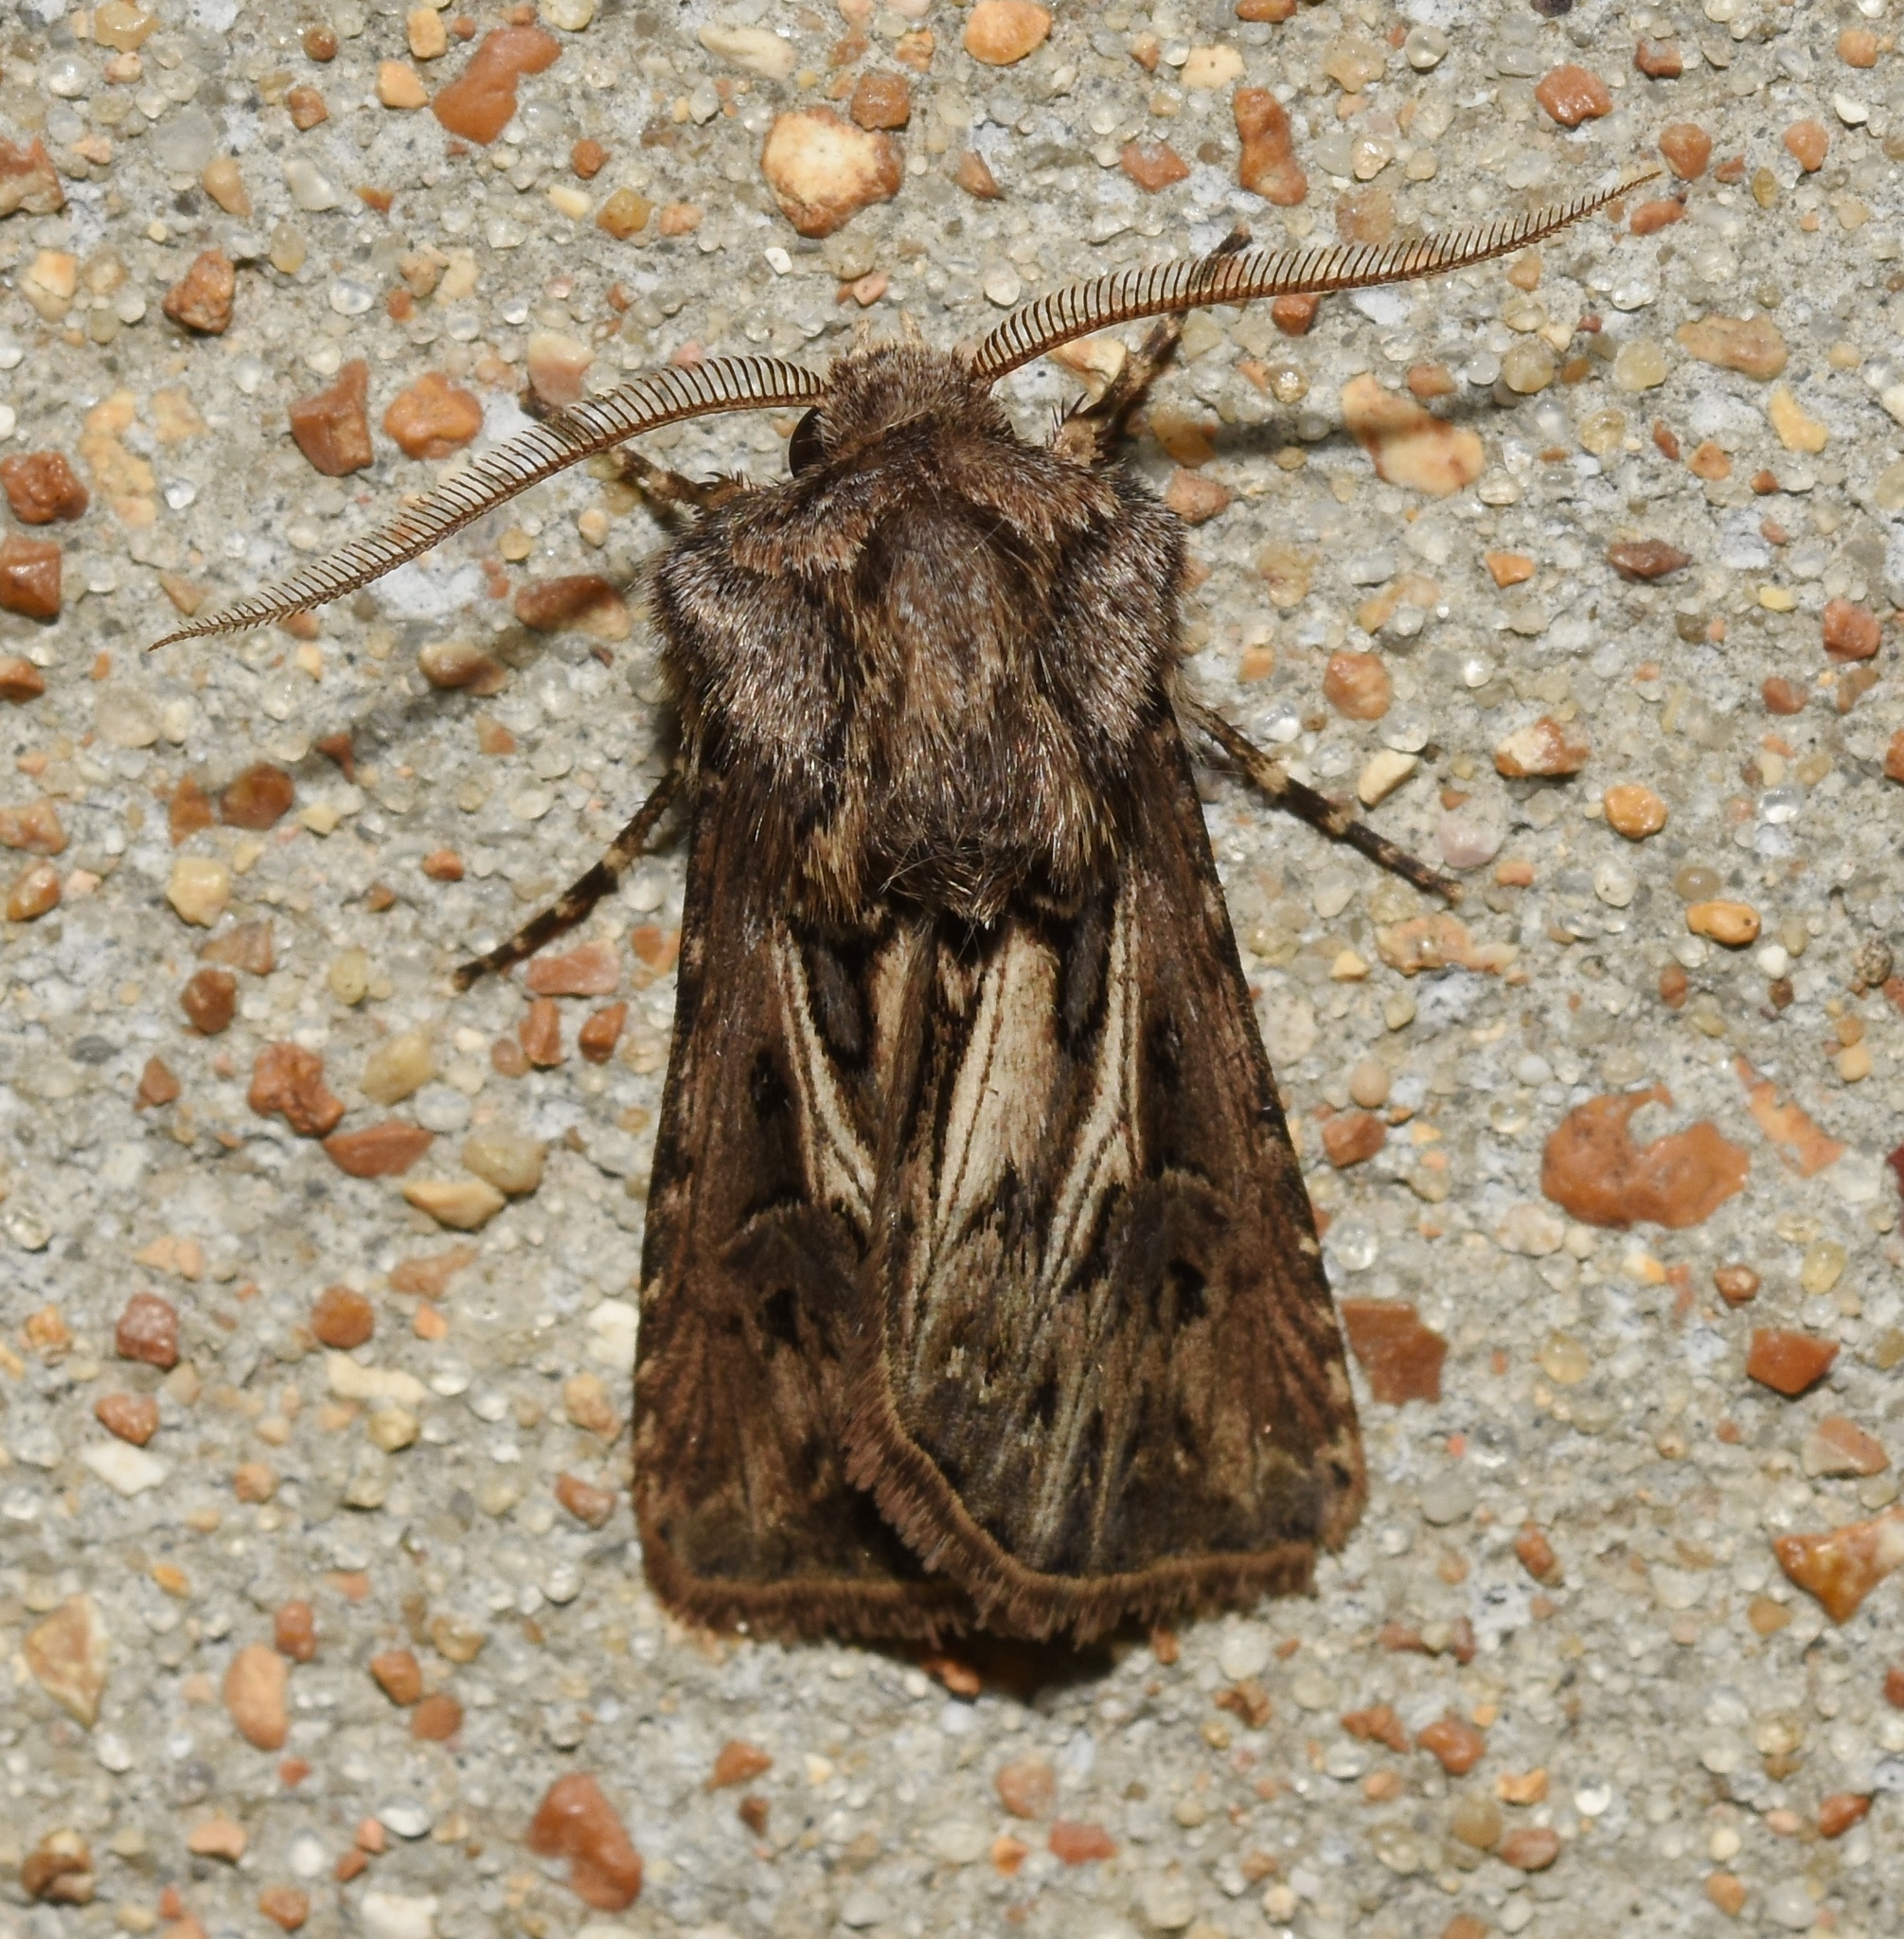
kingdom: Animalia
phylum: Arthropoda
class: Insecta
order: Lepidoptera
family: Noctuidae
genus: Agrotis
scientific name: Agrotis gladiaria
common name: Claybacked cutworm
